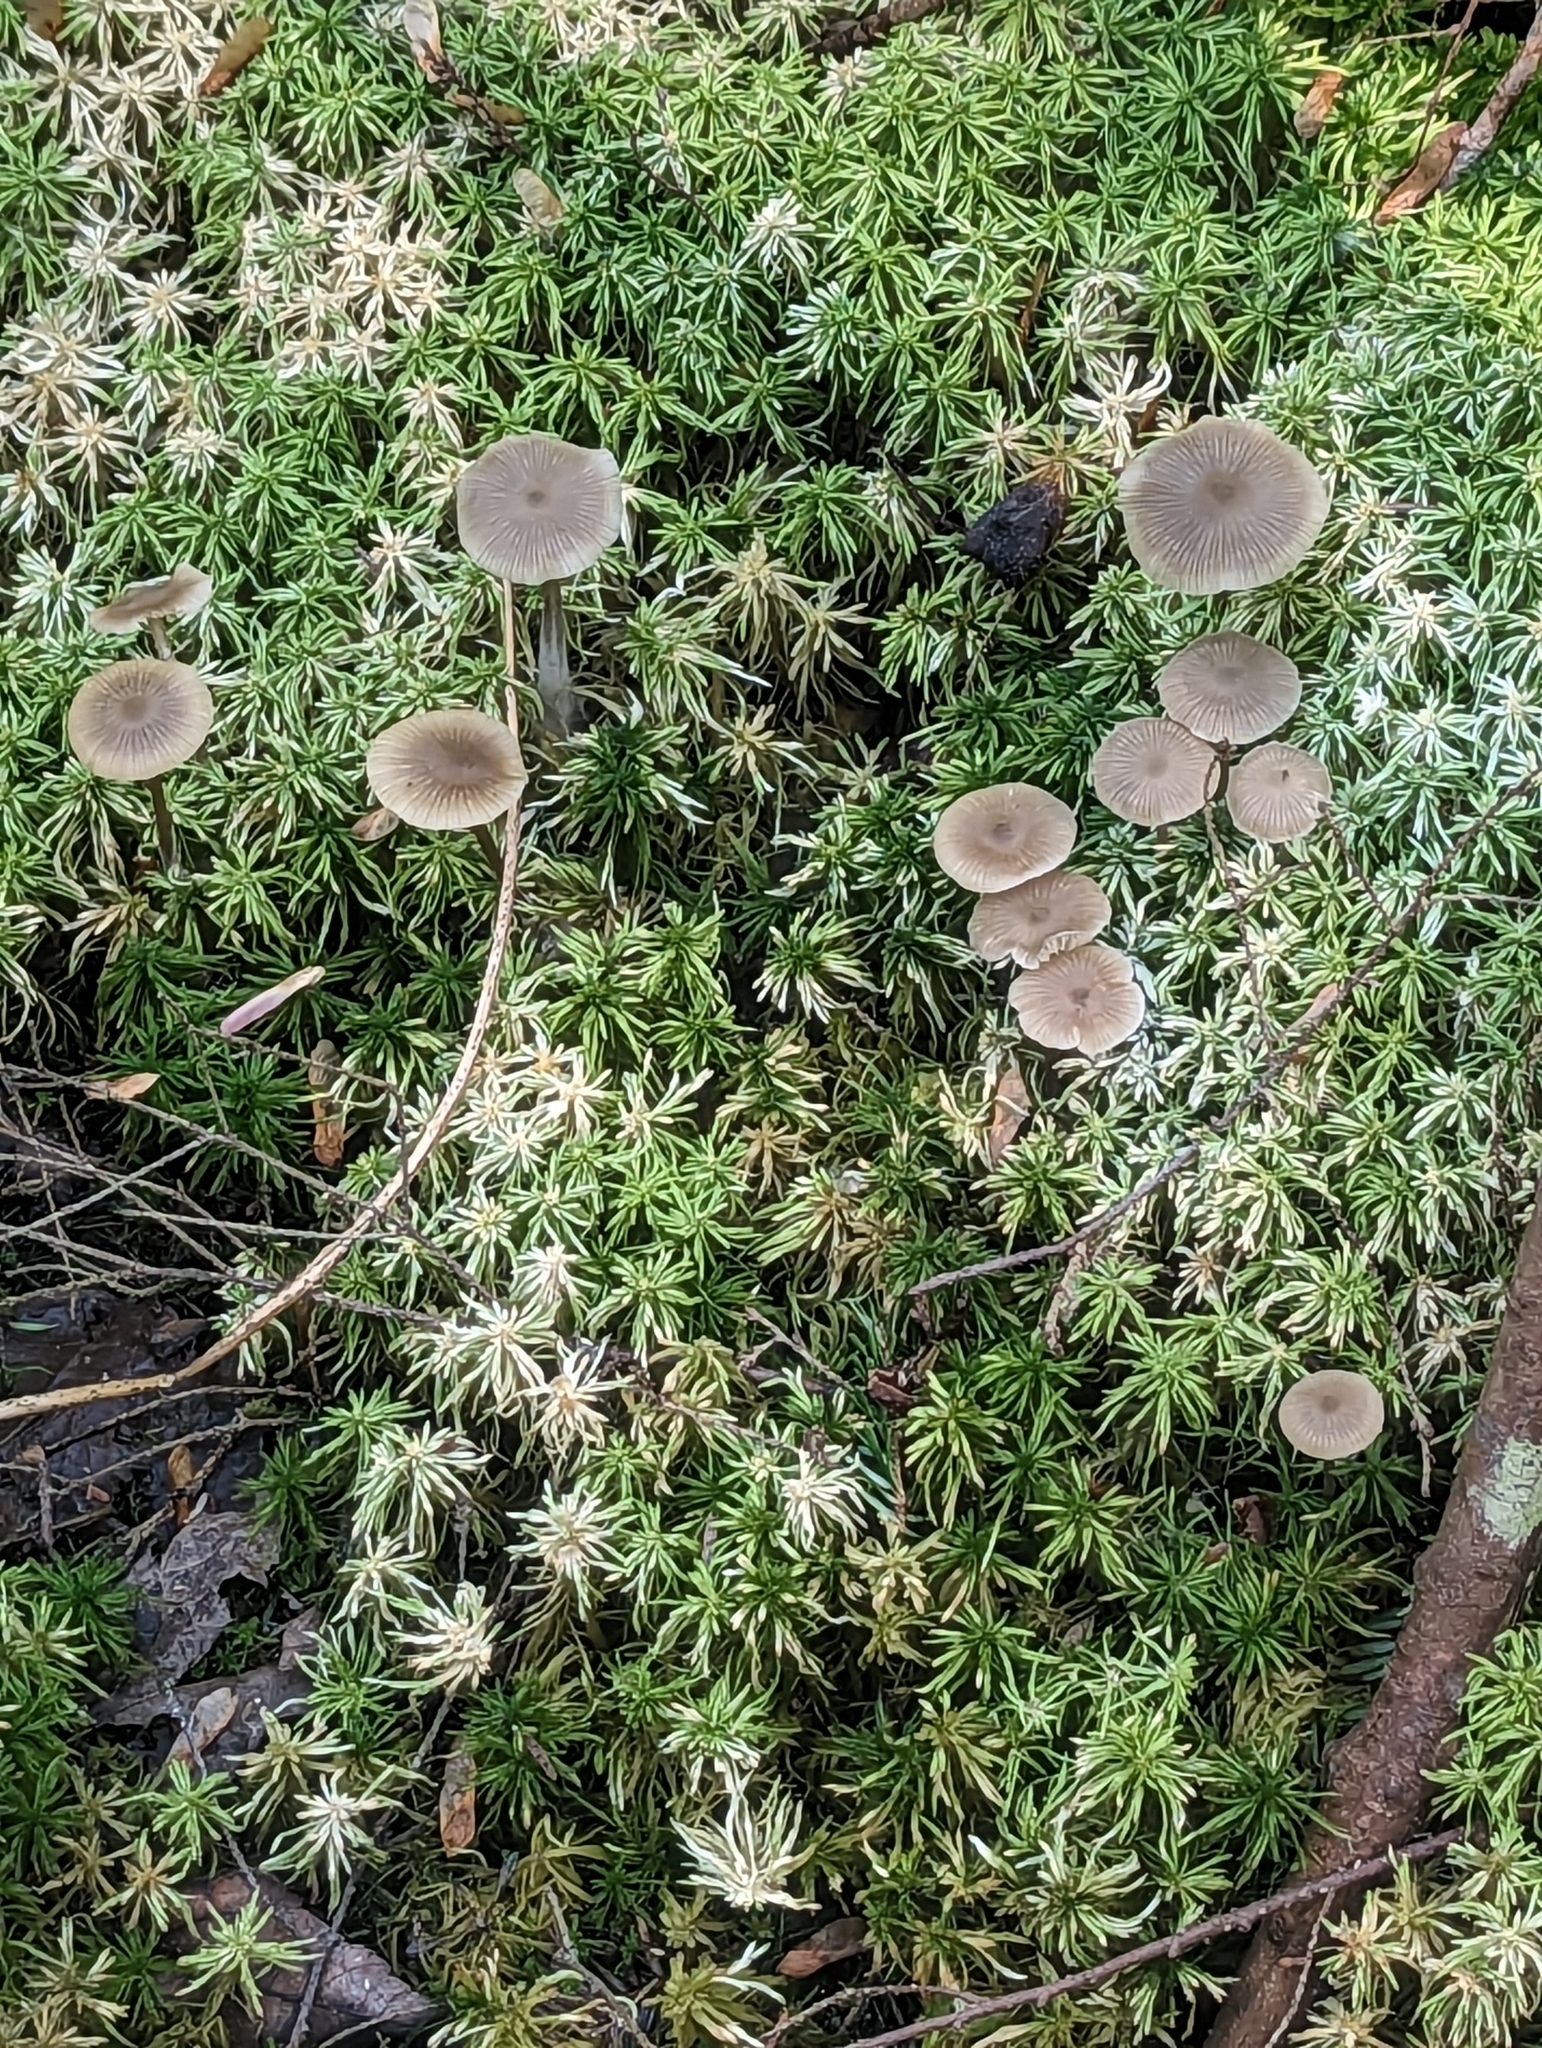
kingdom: Fungi
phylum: Basidiomycota
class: Agaricomycetes
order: Agaricales
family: Lyophyllaceae
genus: Sphagnurus
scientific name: Sphagnurus paluster
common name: Sphagnum greyling
